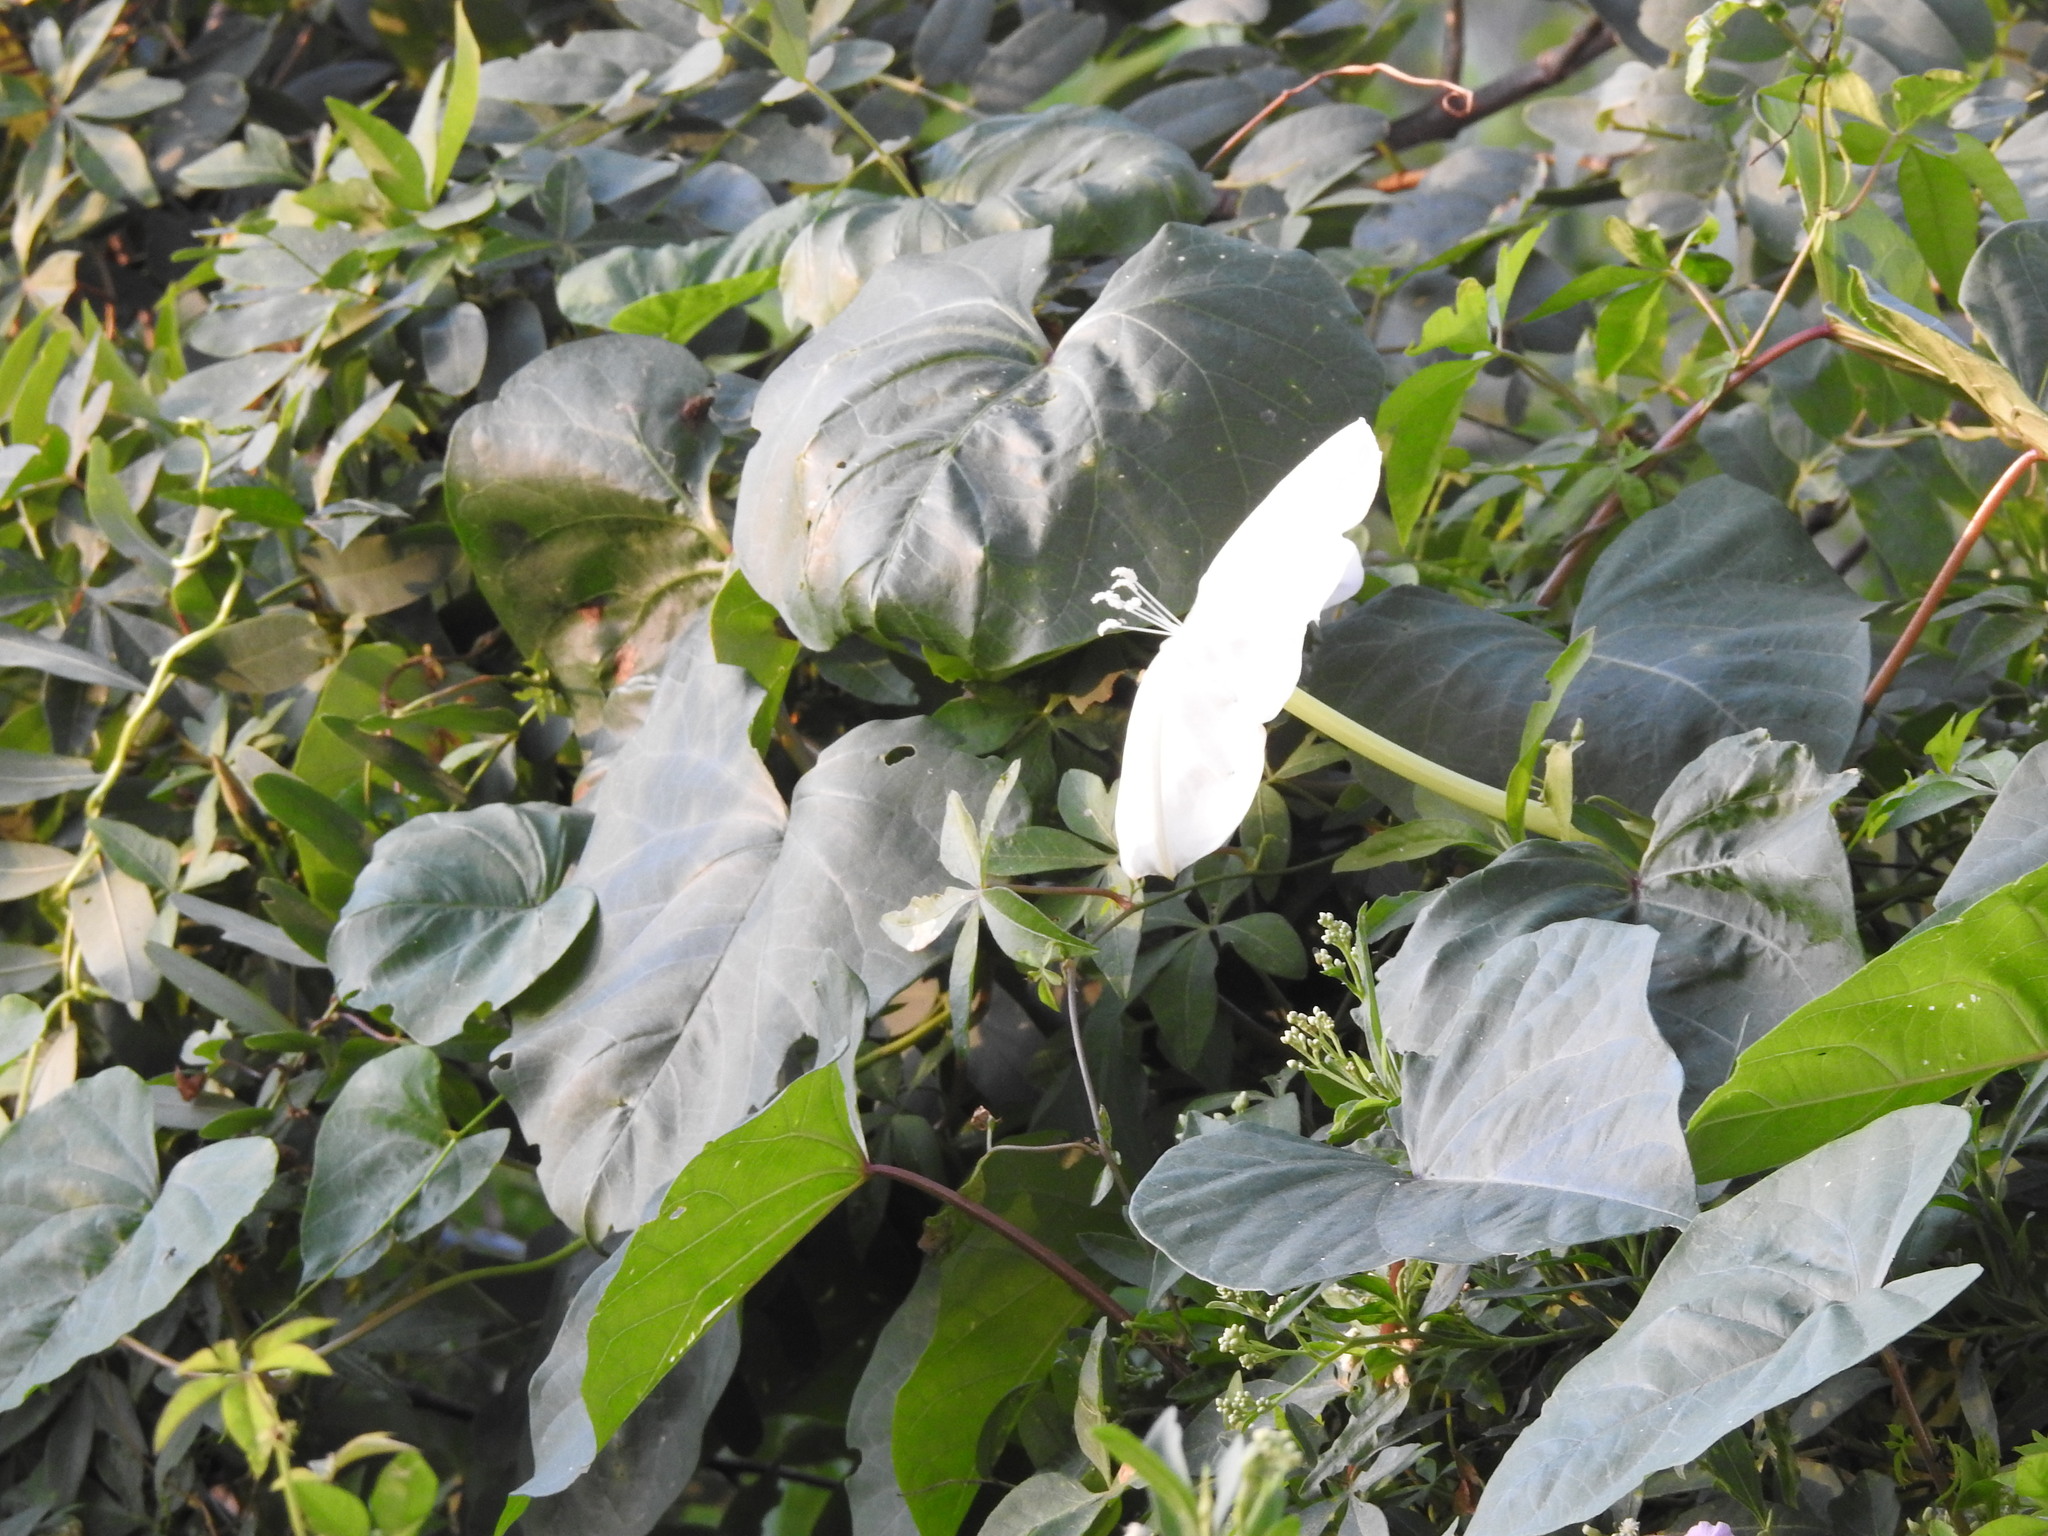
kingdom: Plantae
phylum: Tracheophyta
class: Magnoliopsida
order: Solanales
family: Convolvulaceae
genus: Ipomoea
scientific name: Ipomoea alba
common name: Moonflower
